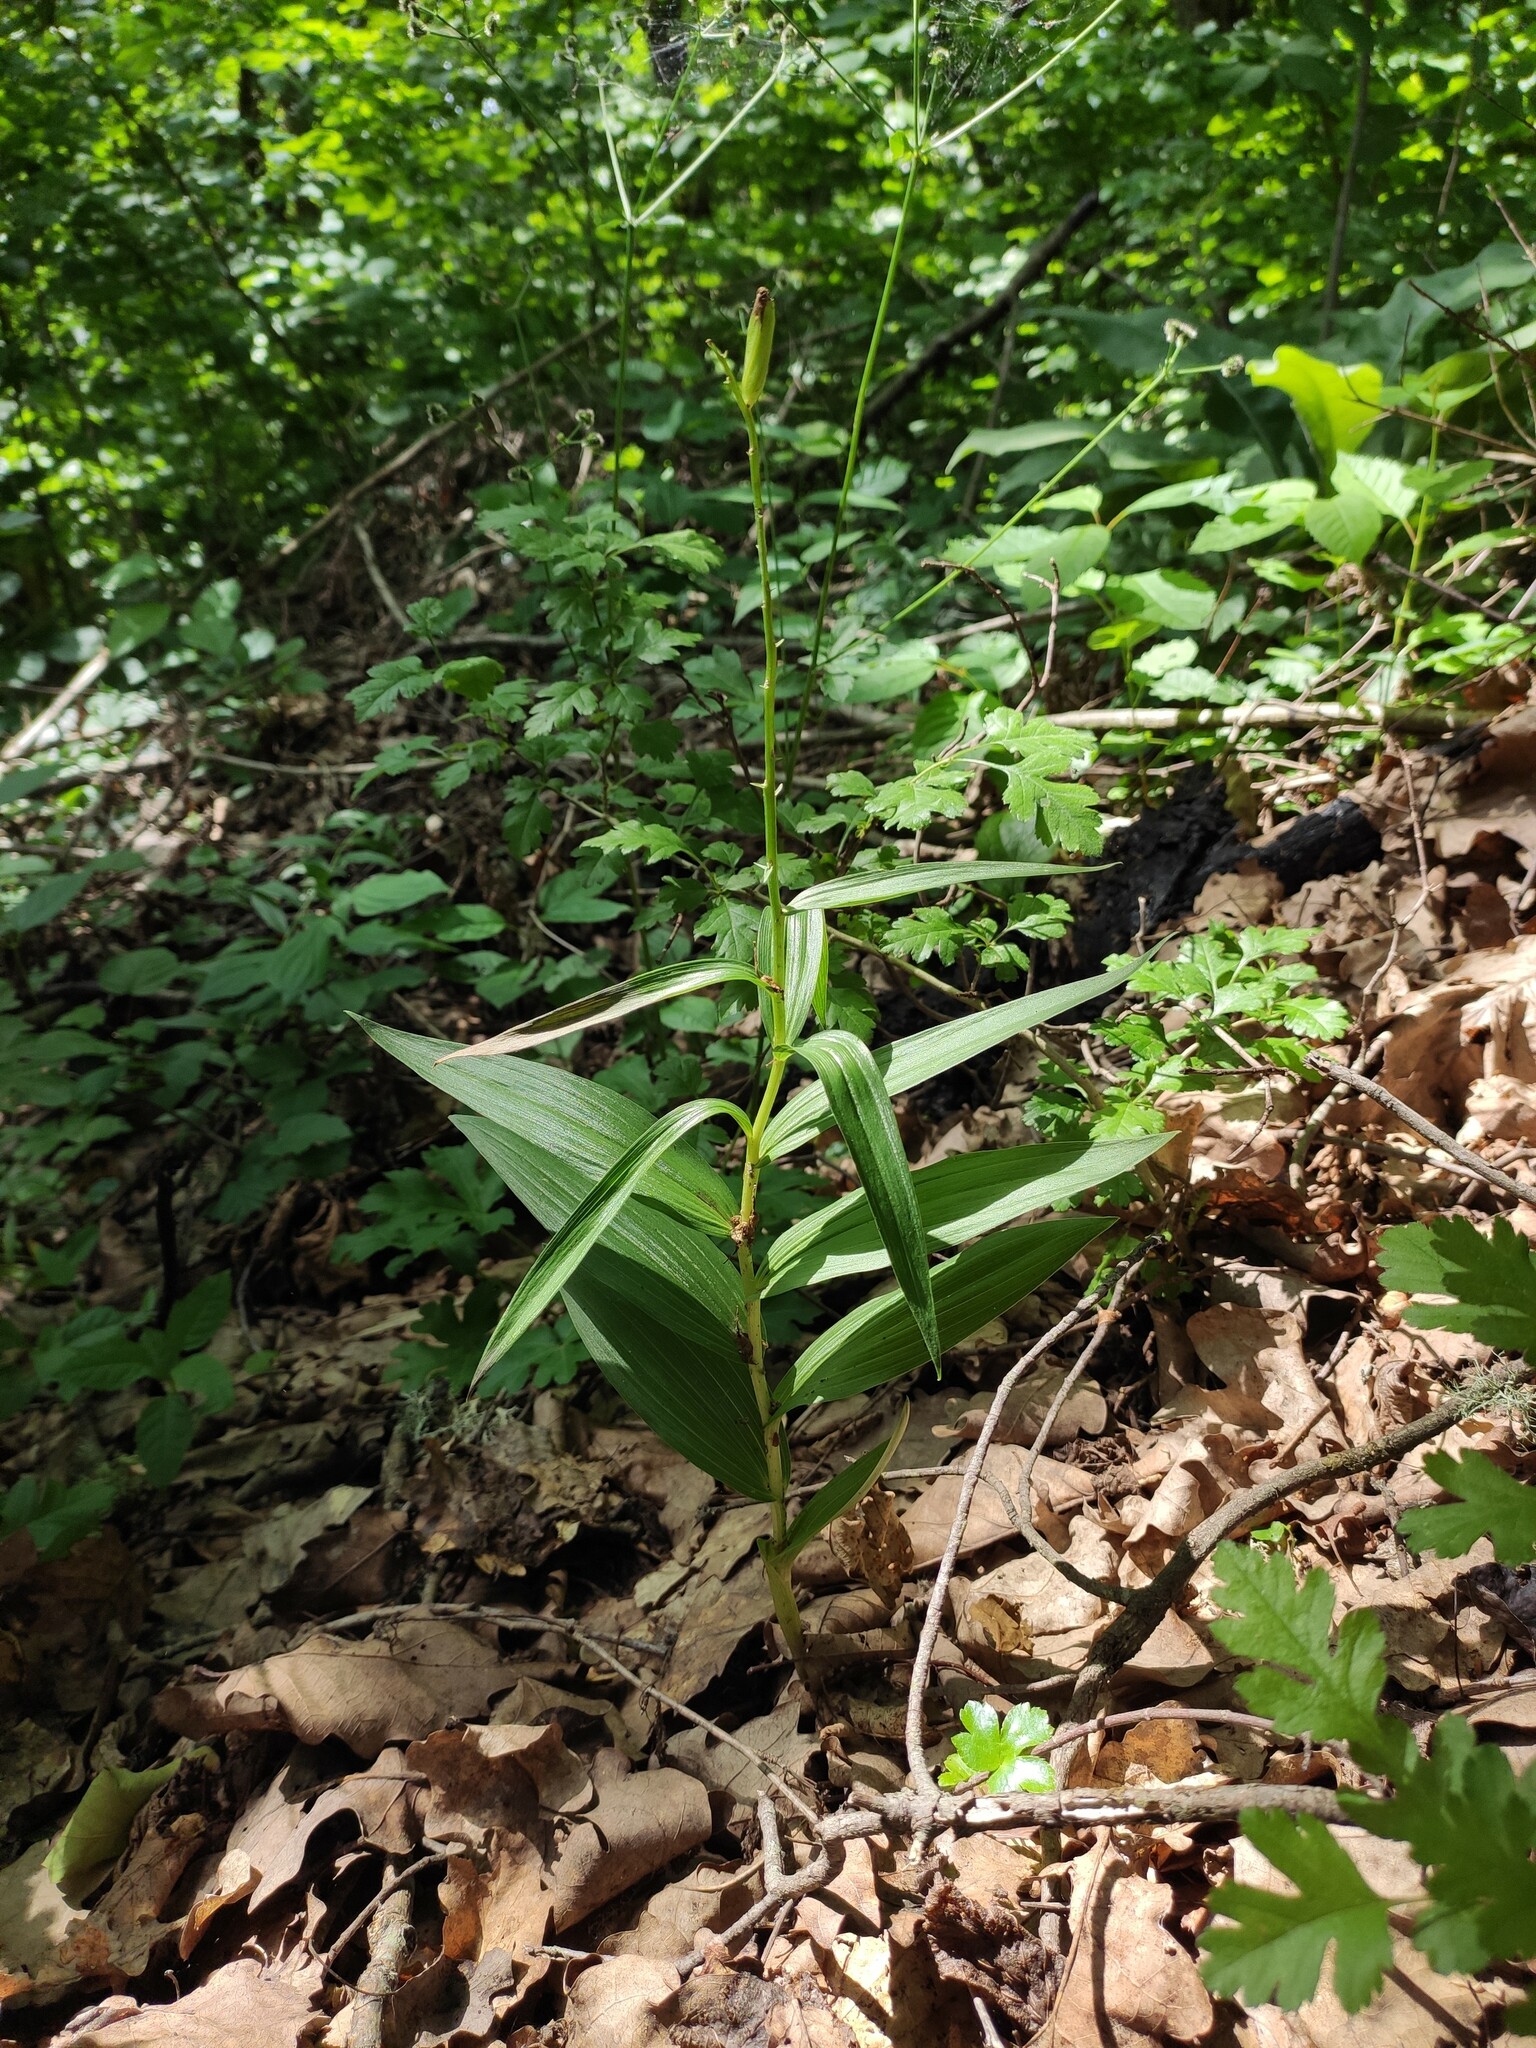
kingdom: Plantae
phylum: Tracheophyta
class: Liliopsida
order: Asparagales
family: Orchidaceae
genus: Cephalanthera
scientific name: Cephalanthera longifolia
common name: Narrow-leaved helleborine
